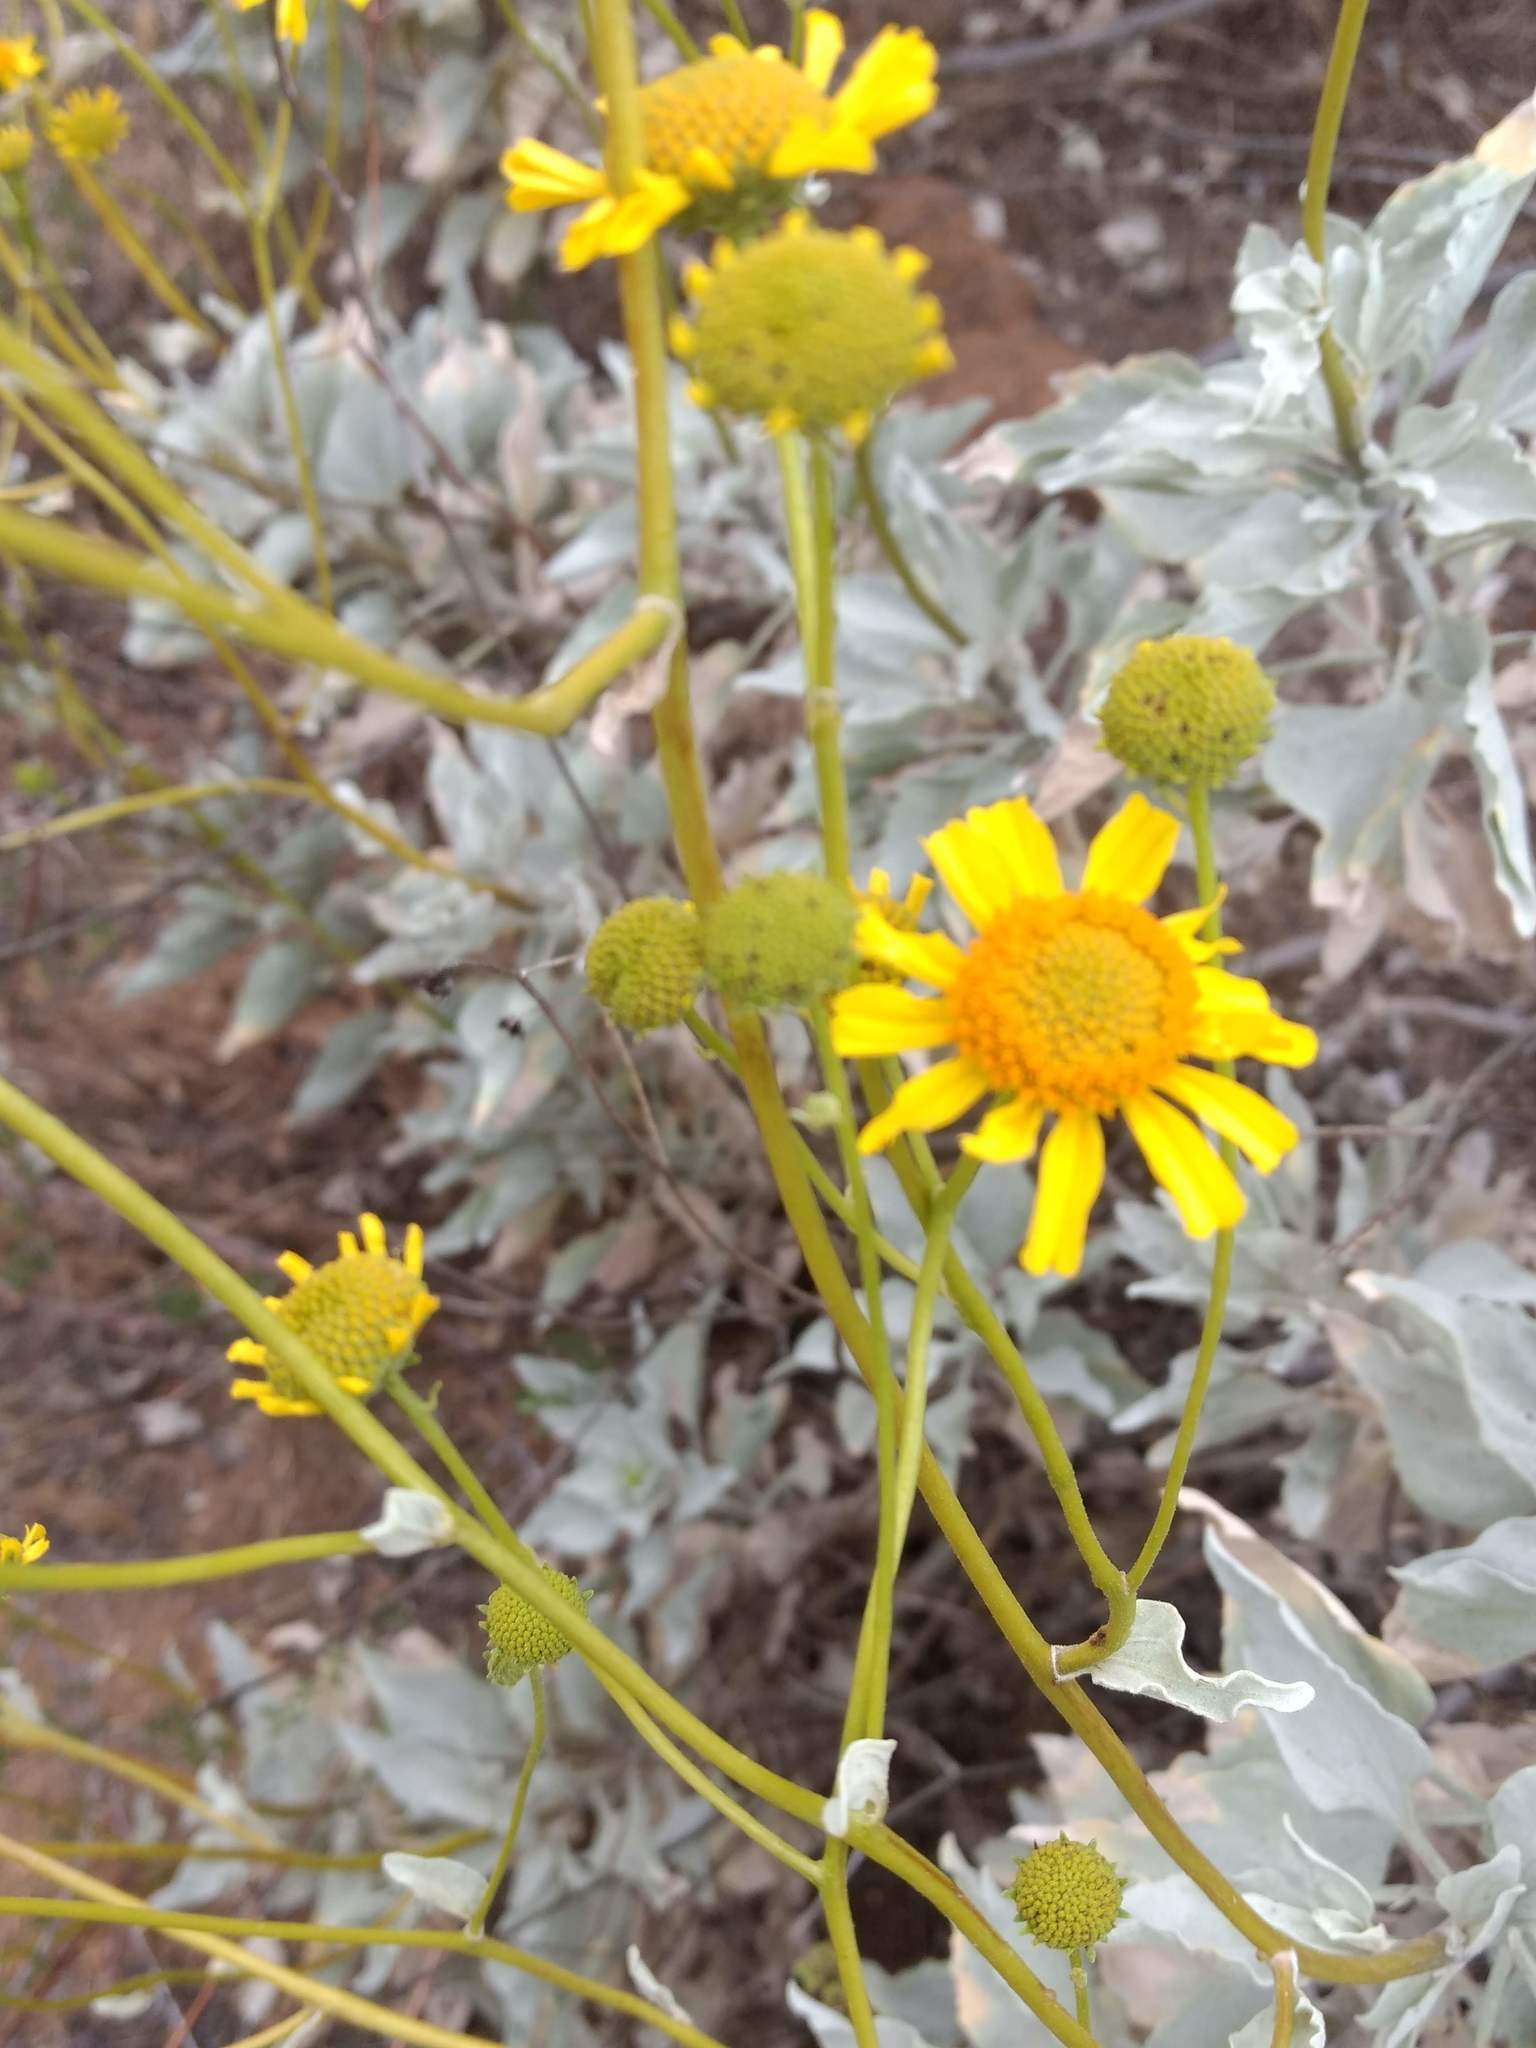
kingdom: Plantae
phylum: Tracheophyta
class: Magnoliopsida
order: Asterales
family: Asteraceae
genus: Encelia
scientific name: Encelia farinosa
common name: Brittlebush
